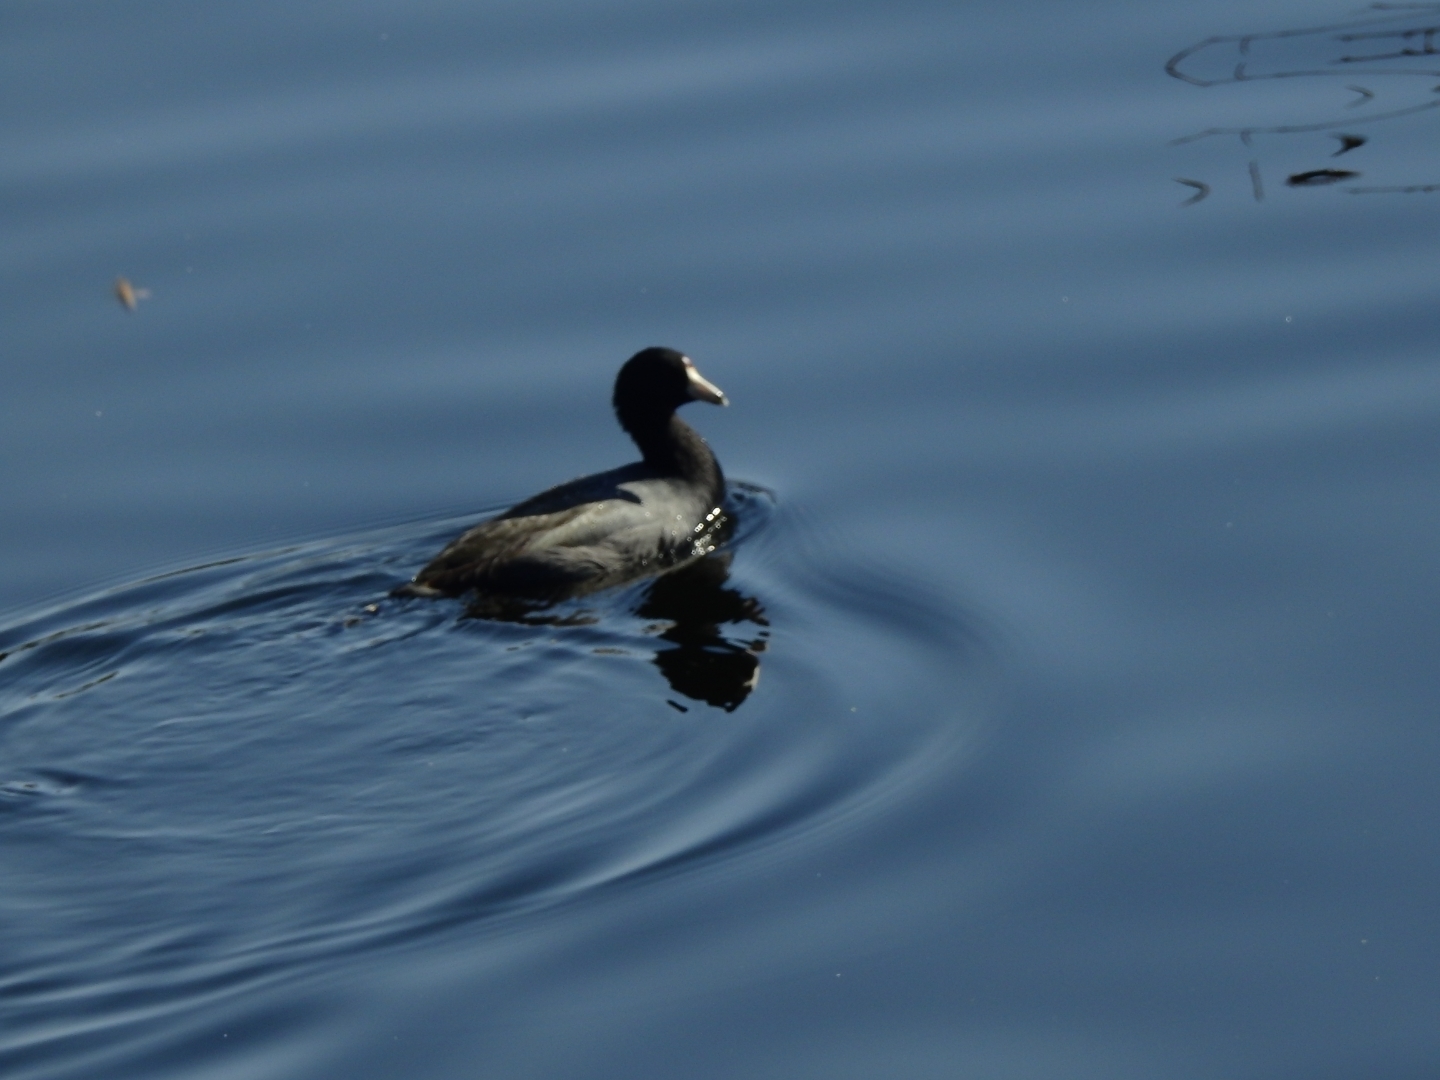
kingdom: Animalia
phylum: Chordata
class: Aves
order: Gruiformes
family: Rallidae
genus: Fulica
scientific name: Fulica americana
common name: American coot
